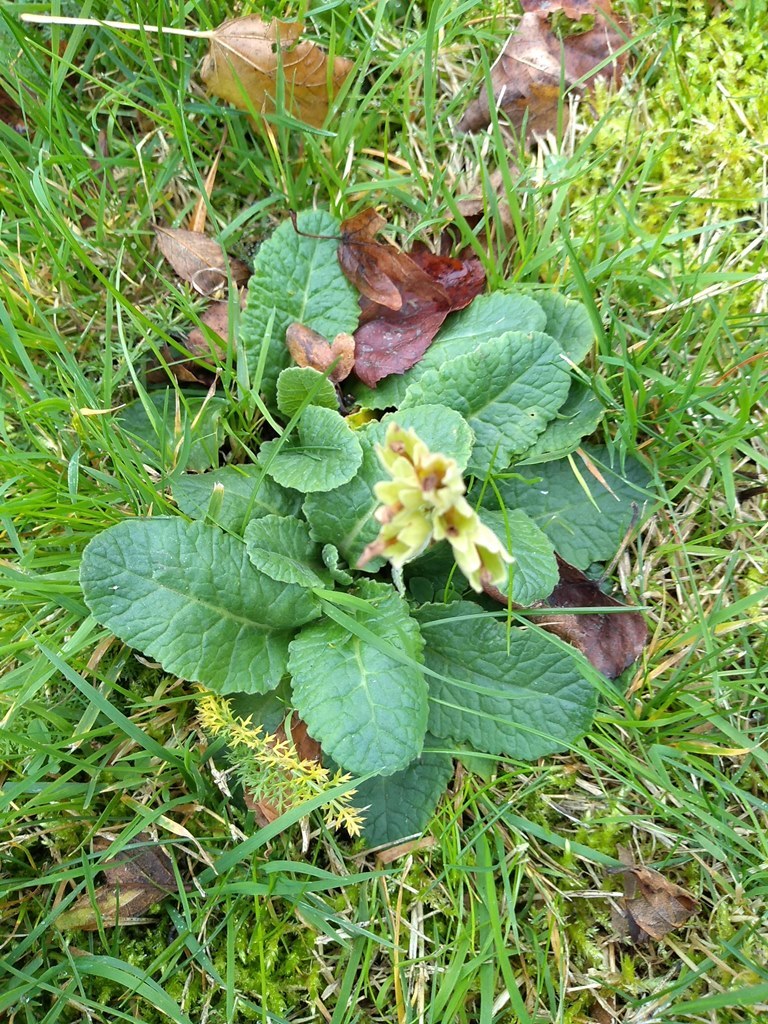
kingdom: Plantae
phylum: Tracheophyta
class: Magnoliopsida
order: Ericales
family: Primulaceae
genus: Primula
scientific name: Primula veris
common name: Cowslip
